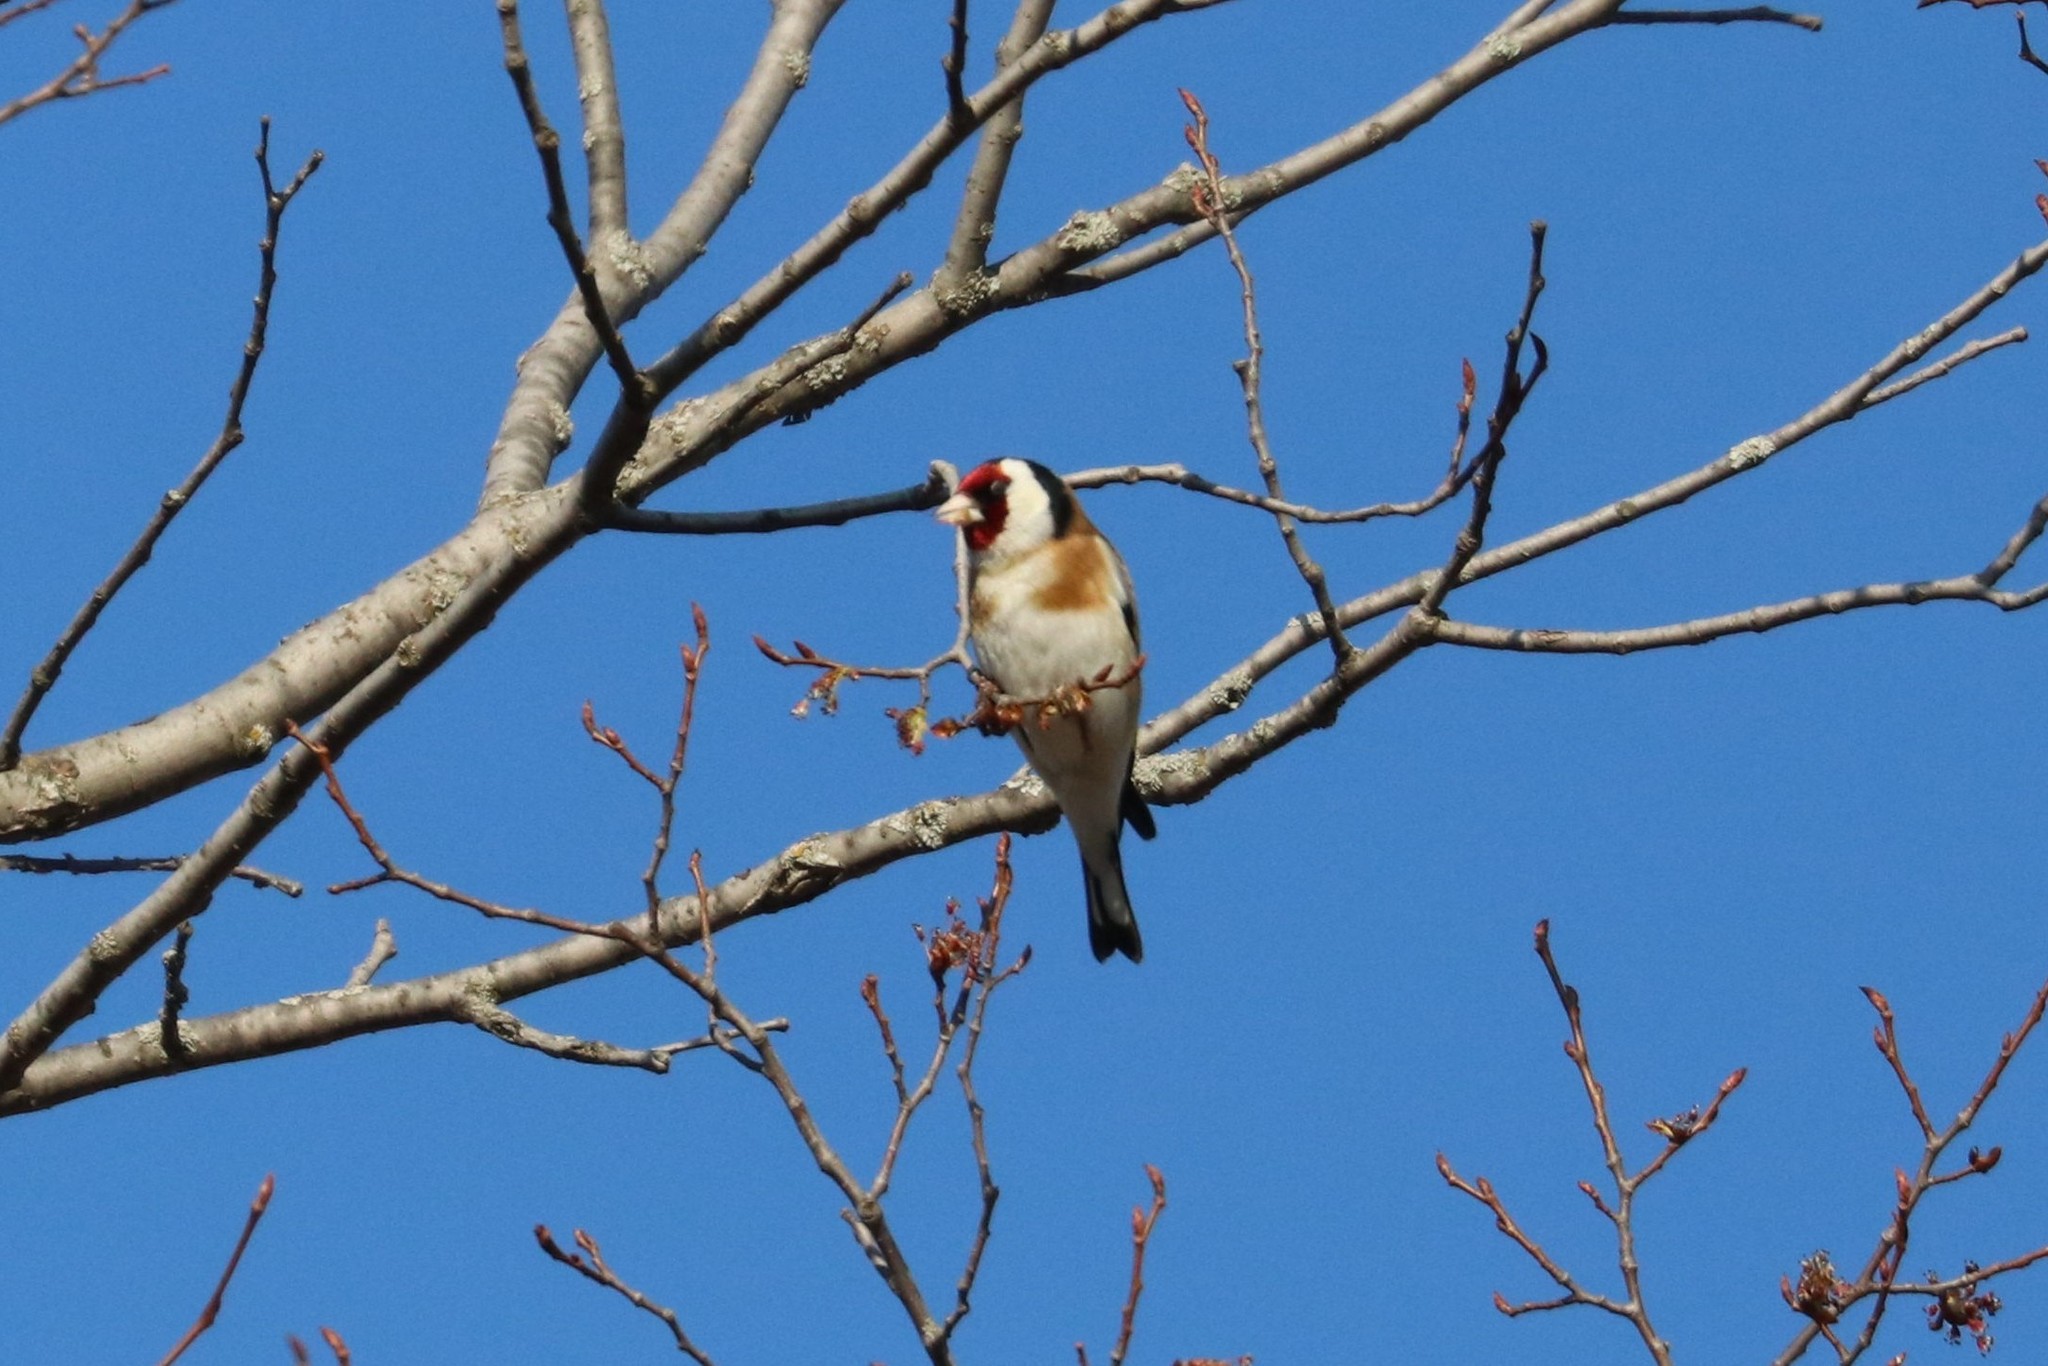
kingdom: Animalia
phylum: Chordata
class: Aves
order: Passeriformes
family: Fringillidae
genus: Carduelis
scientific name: Carduelis carduelis
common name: European goldfinch
